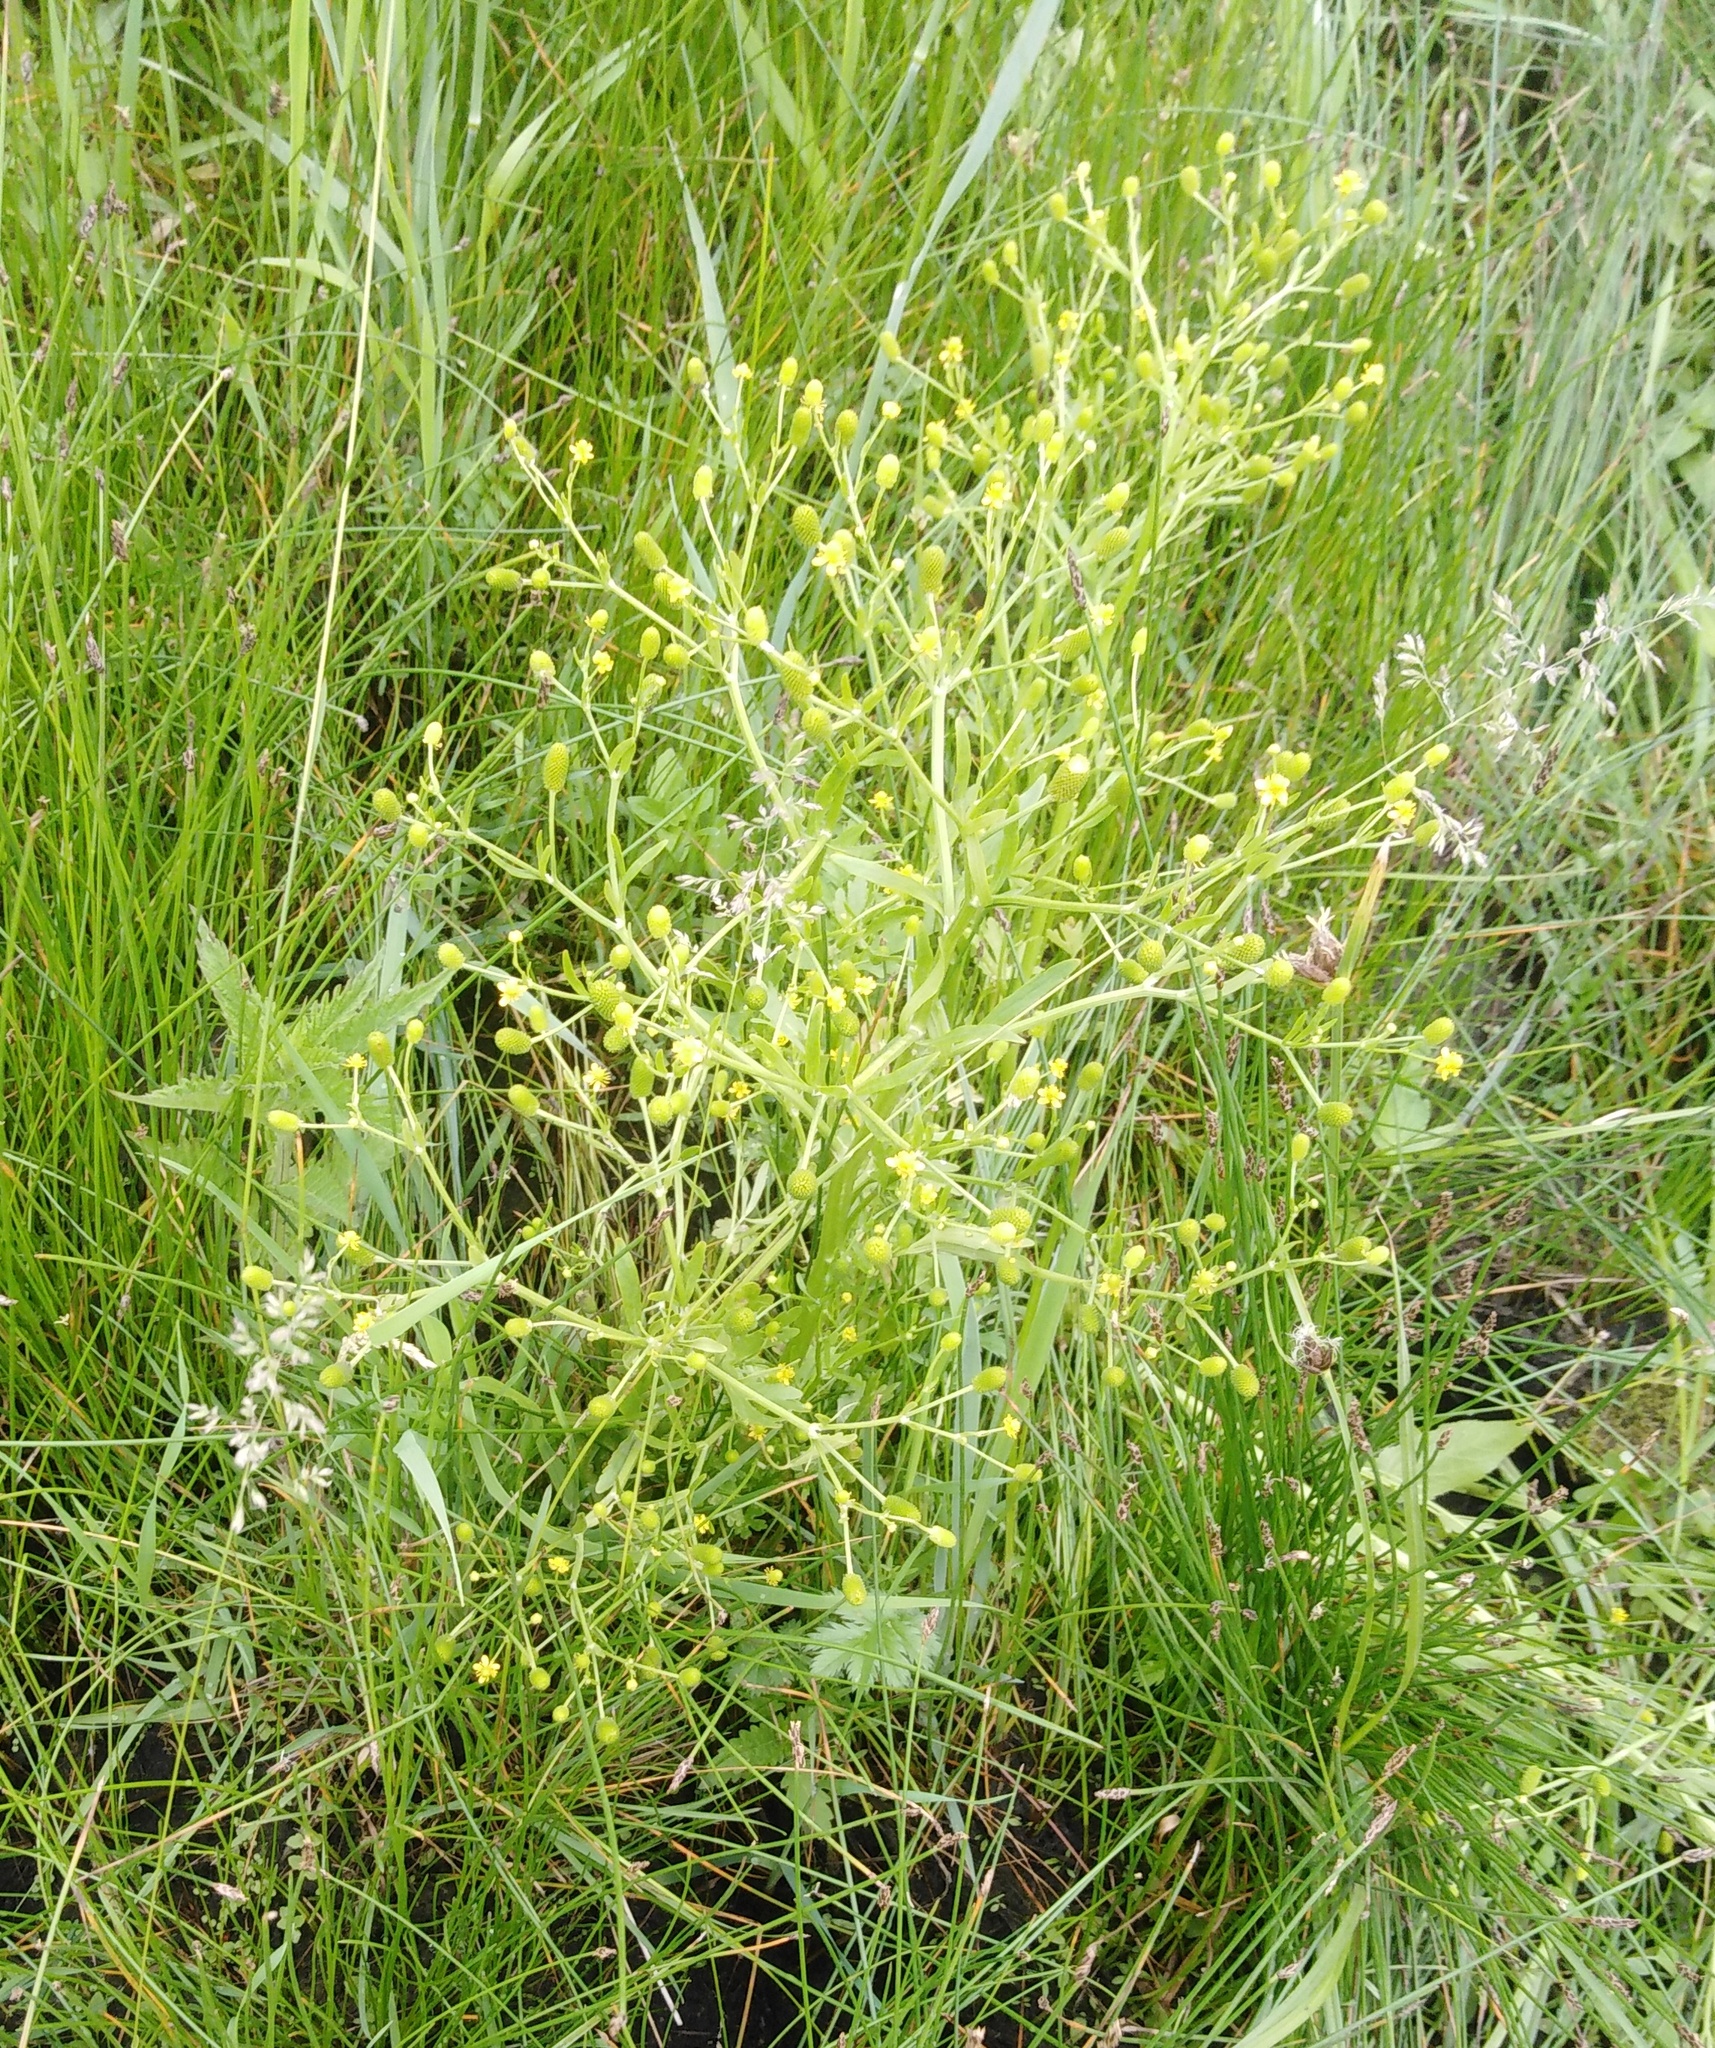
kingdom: Plantae
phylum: Tracheophyta
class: Magnoliopsida
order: Ranunculales
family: Ranunculaceae
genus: Ranunculus
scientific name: Ranunculus sceleratus
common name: Celery-leaved buttercup
